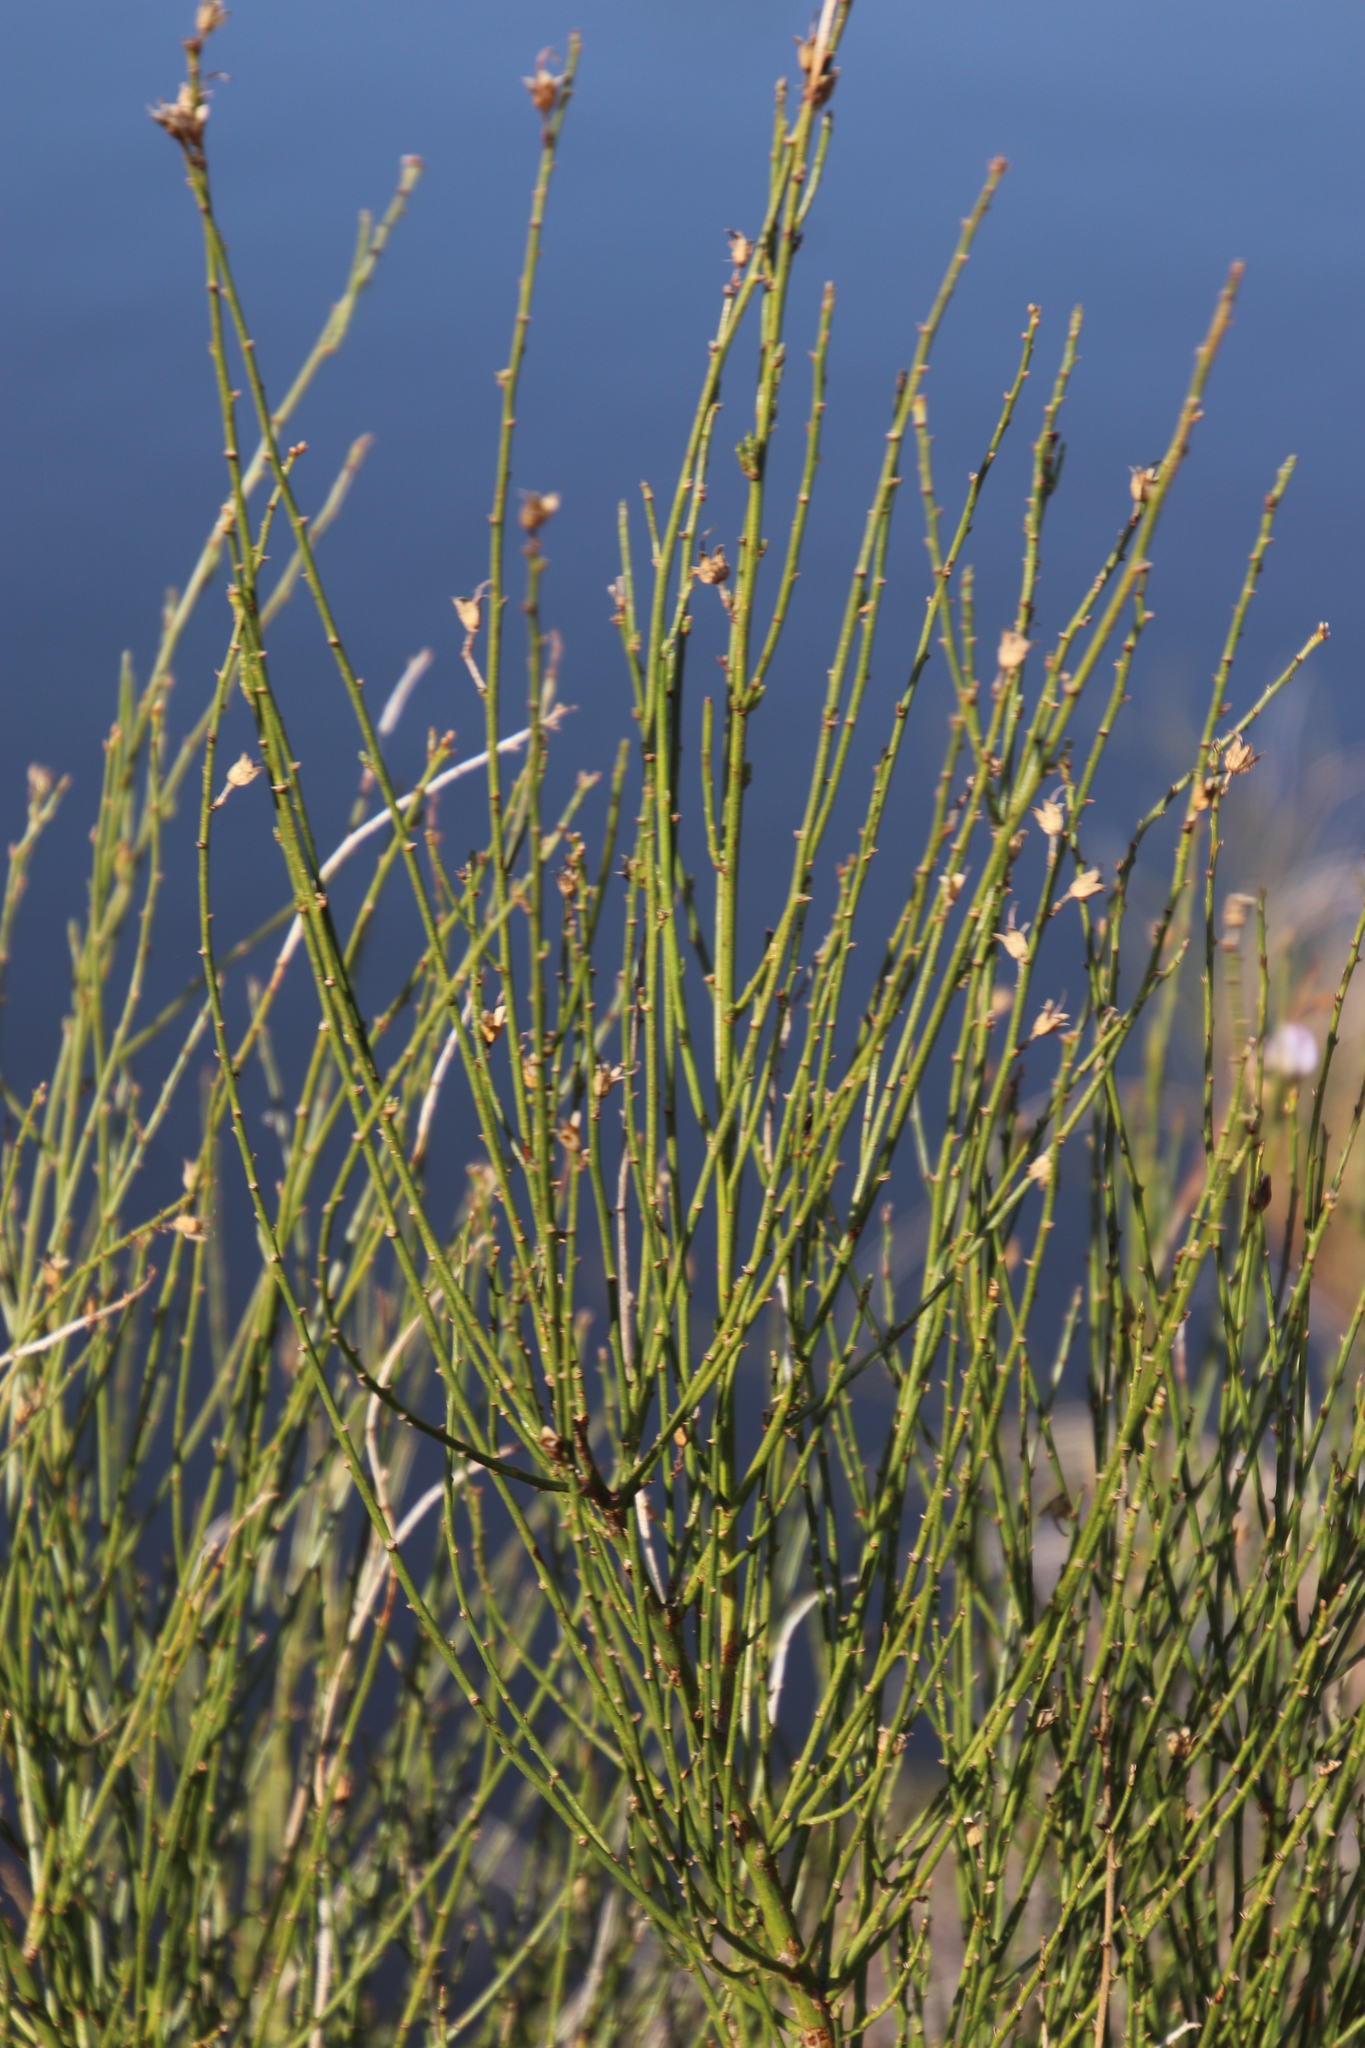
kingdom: Plantae
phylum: Tracheophyta
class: Magnoliopsida
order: Fabales
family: Fabaceae
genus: Psoralea
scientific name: Psoralea usitata
